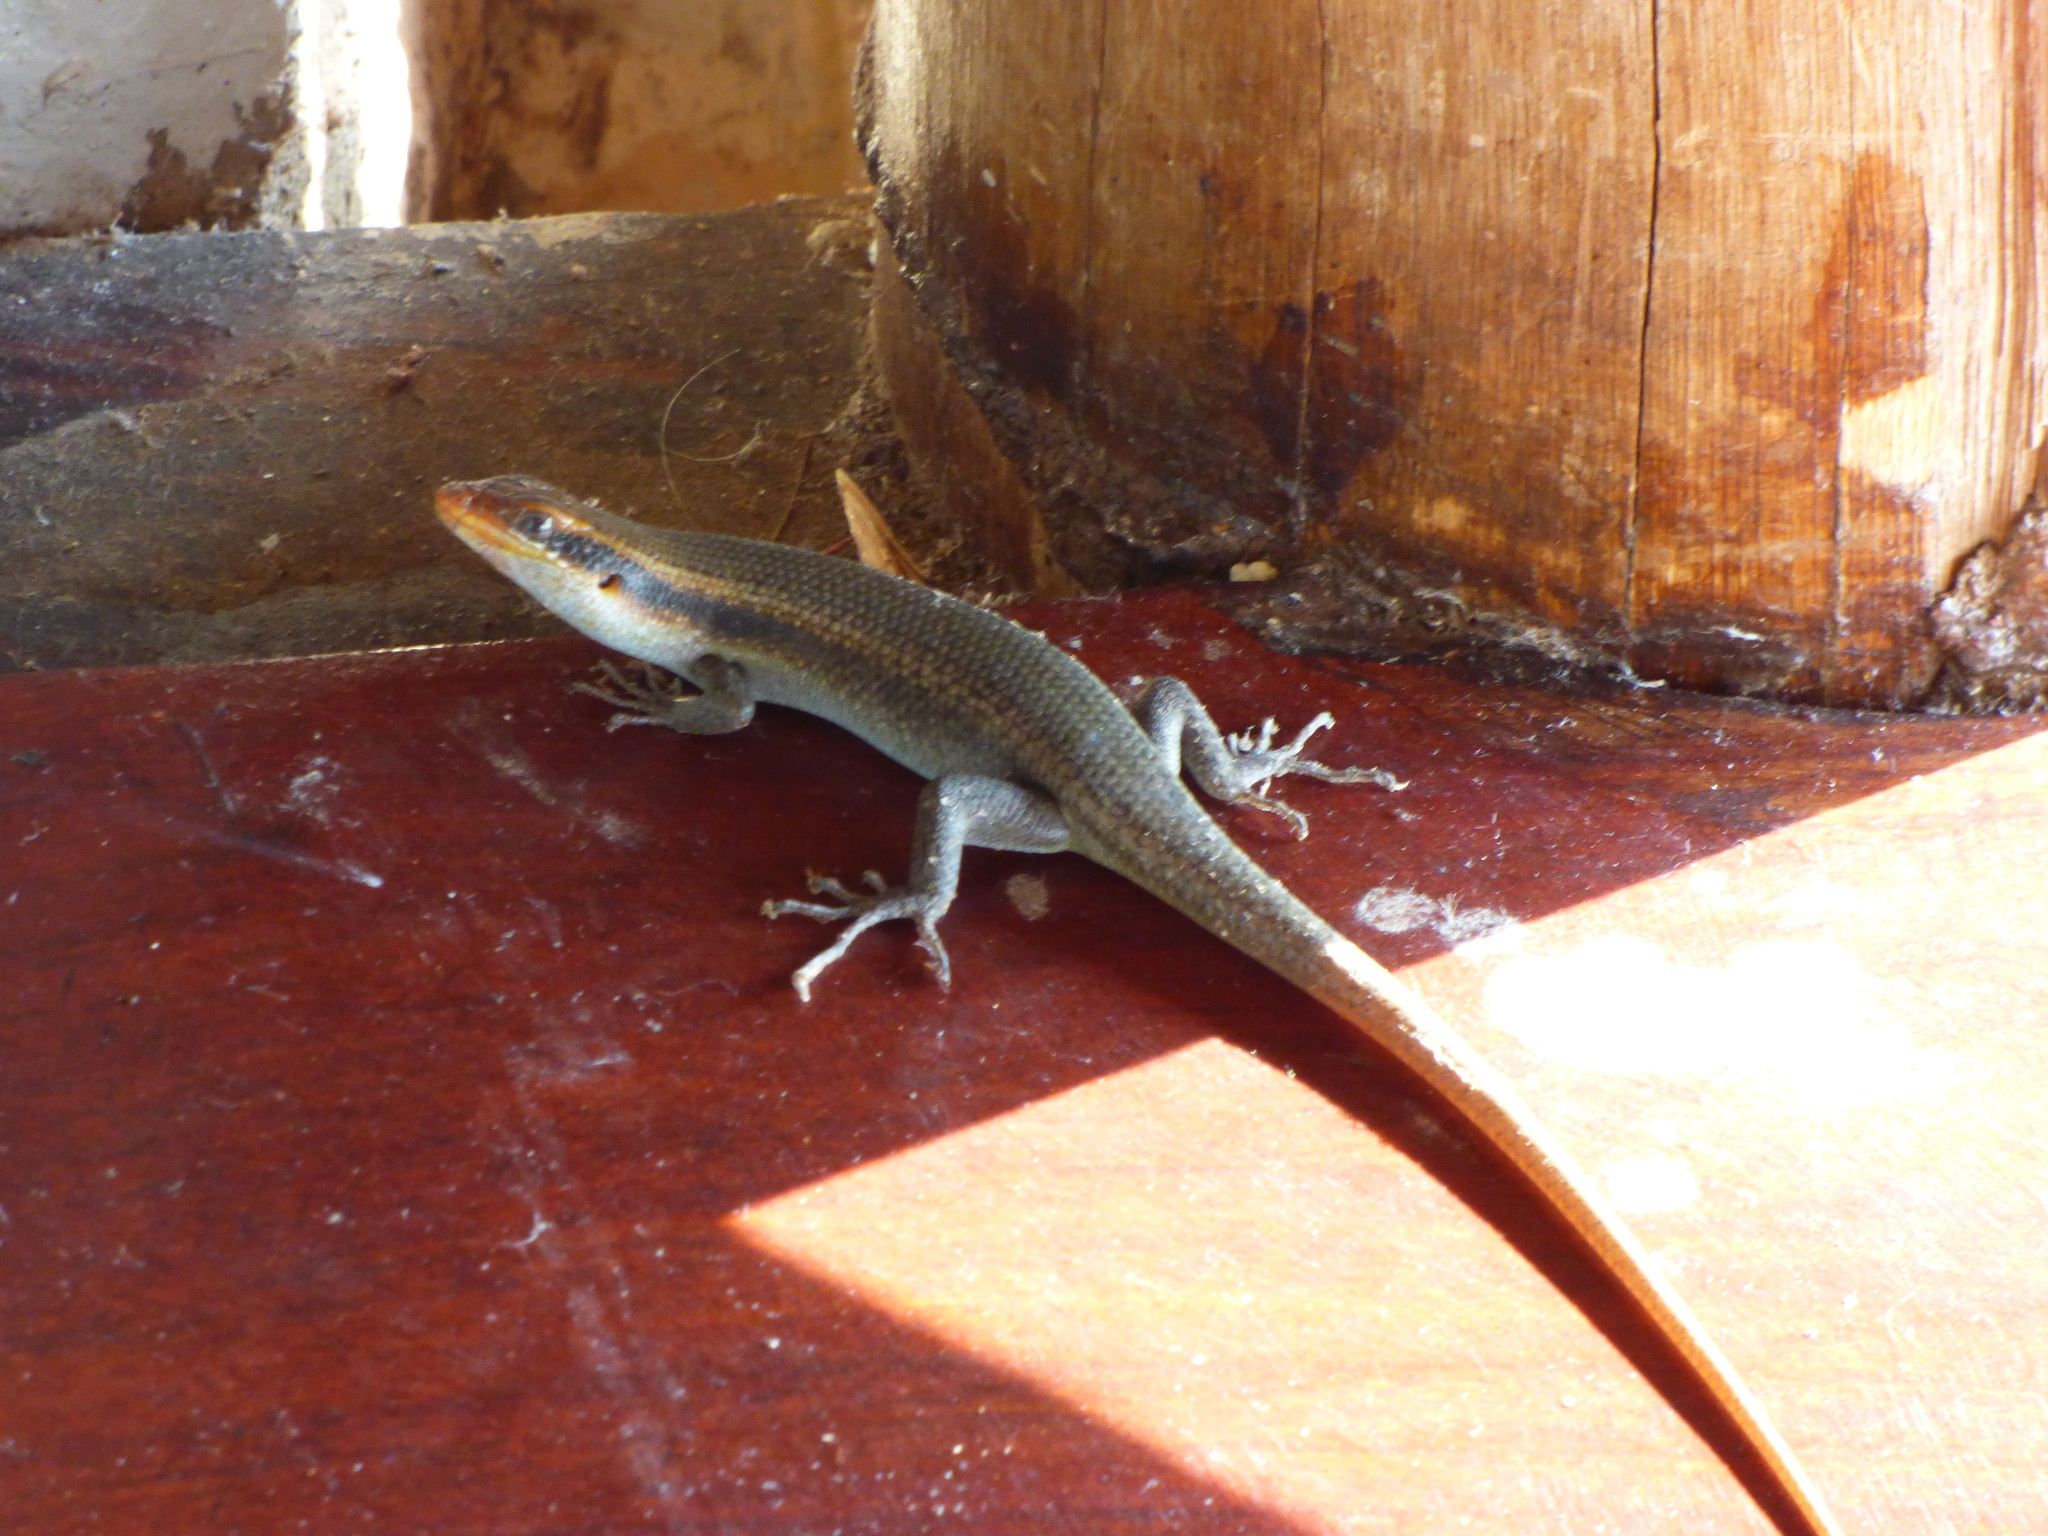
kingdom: Animalia
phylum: Chordata
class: Squamata
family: Scincidae
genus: Trachylepis
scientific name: Trachylepis wahlbergii
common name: Wahlberg’s striped skink
